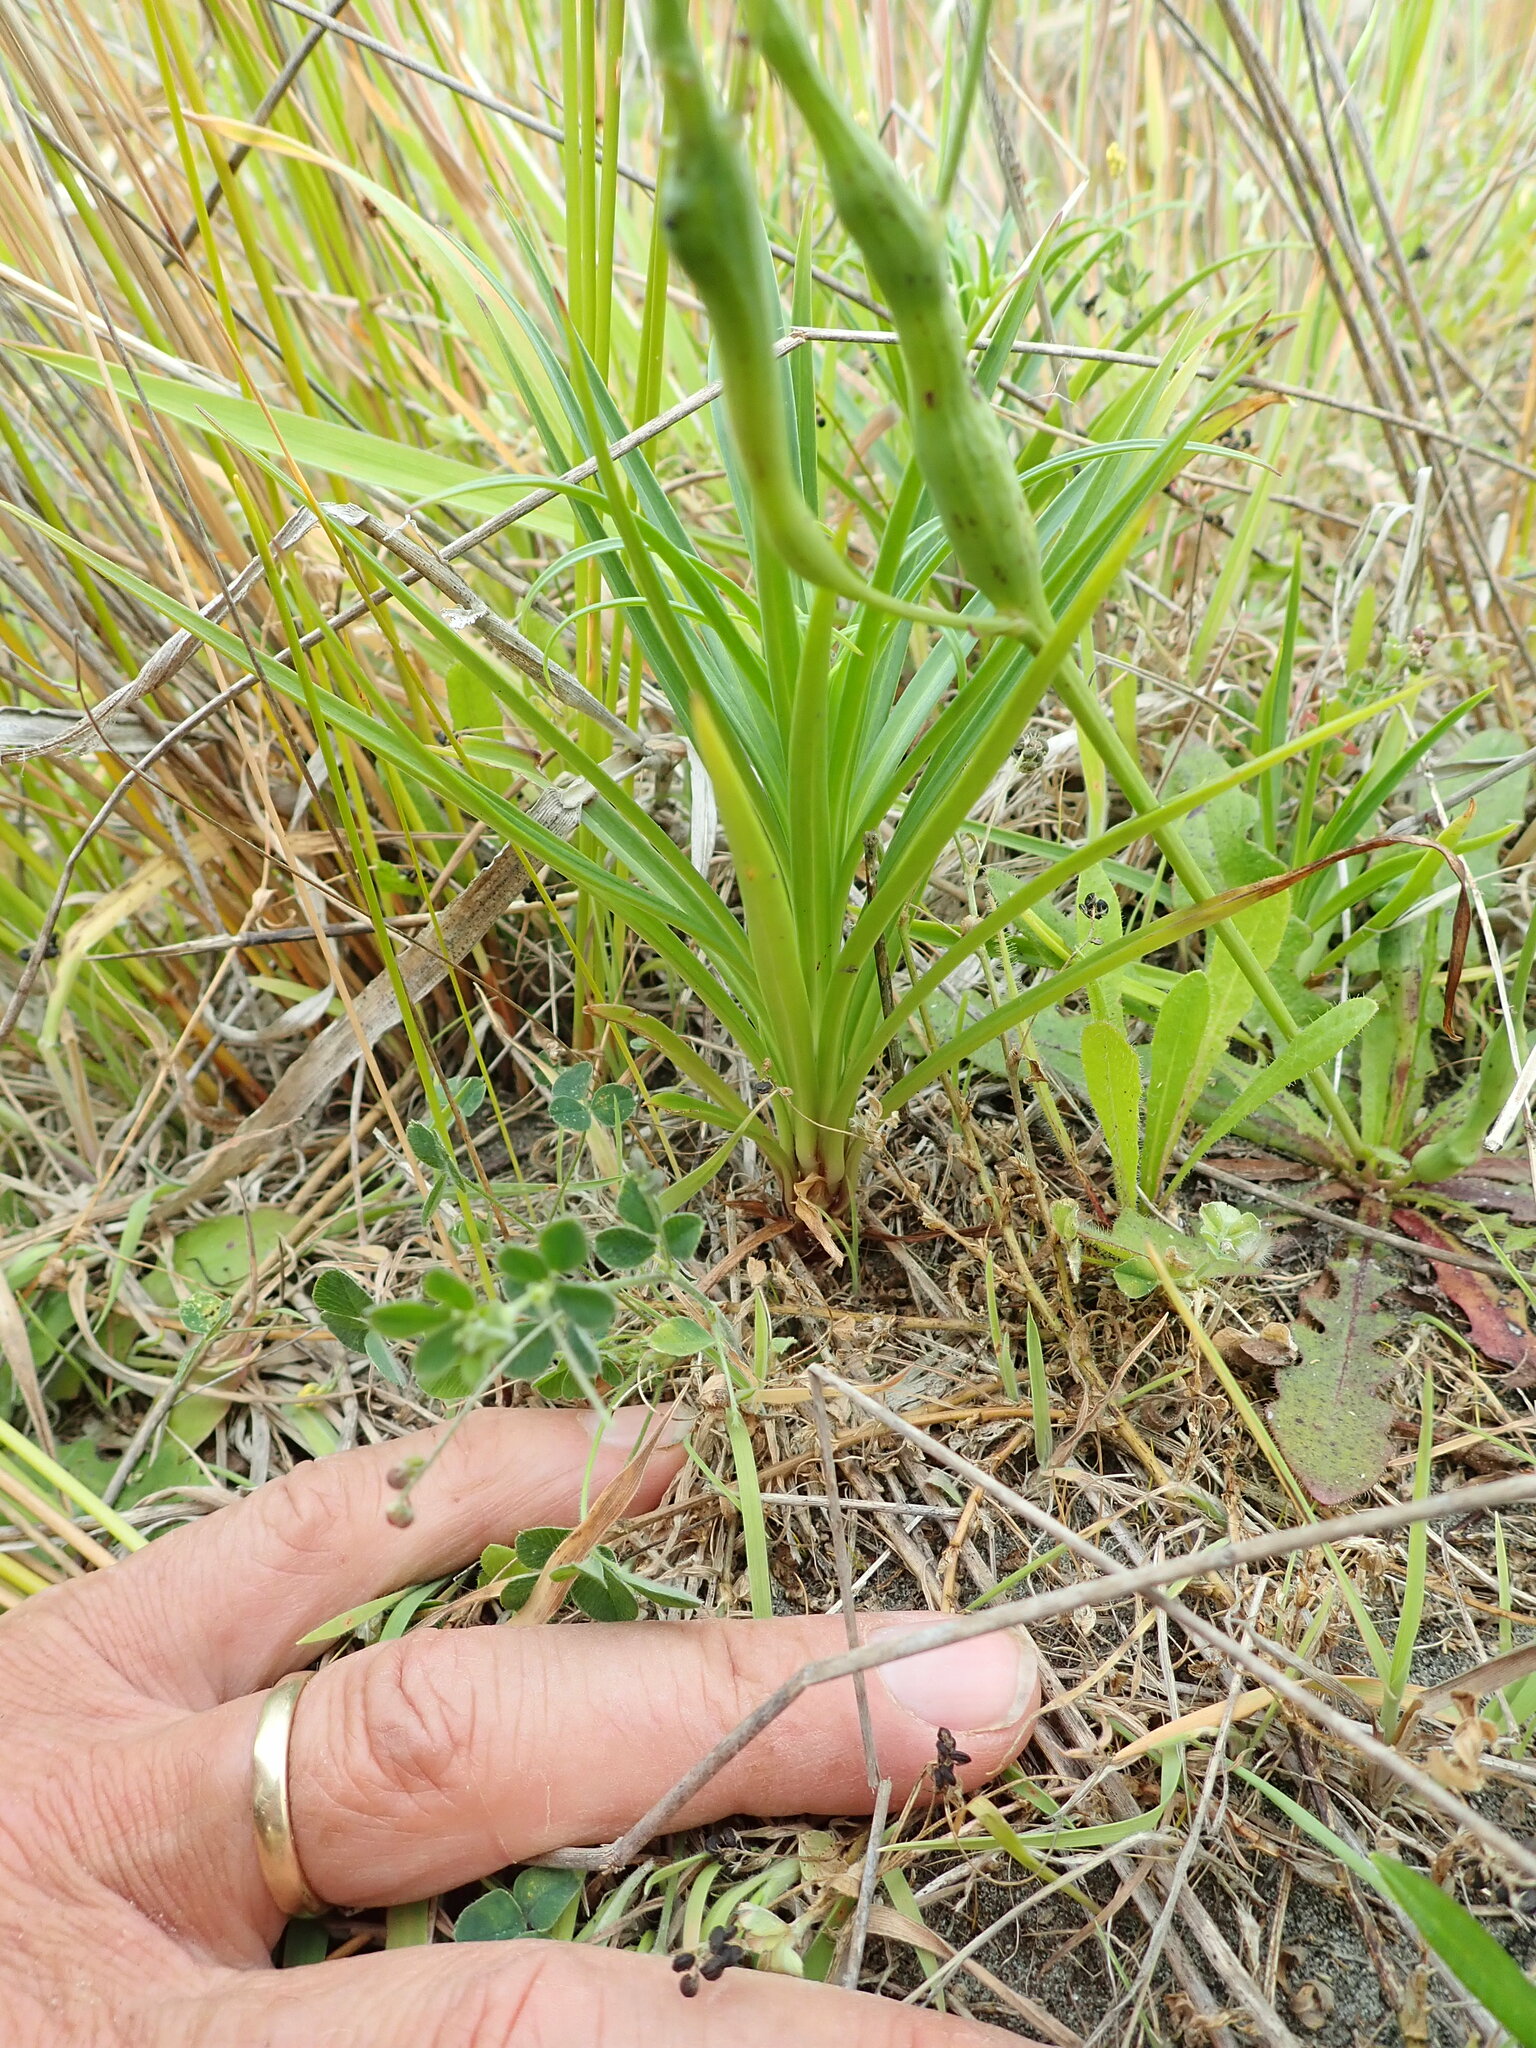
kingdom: Plantae
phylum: Tracheophyta
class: Liliopsida
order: Liliales
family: Liliaceae
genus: Lilium
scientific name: Lilium formosanum
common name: Formosa lily
